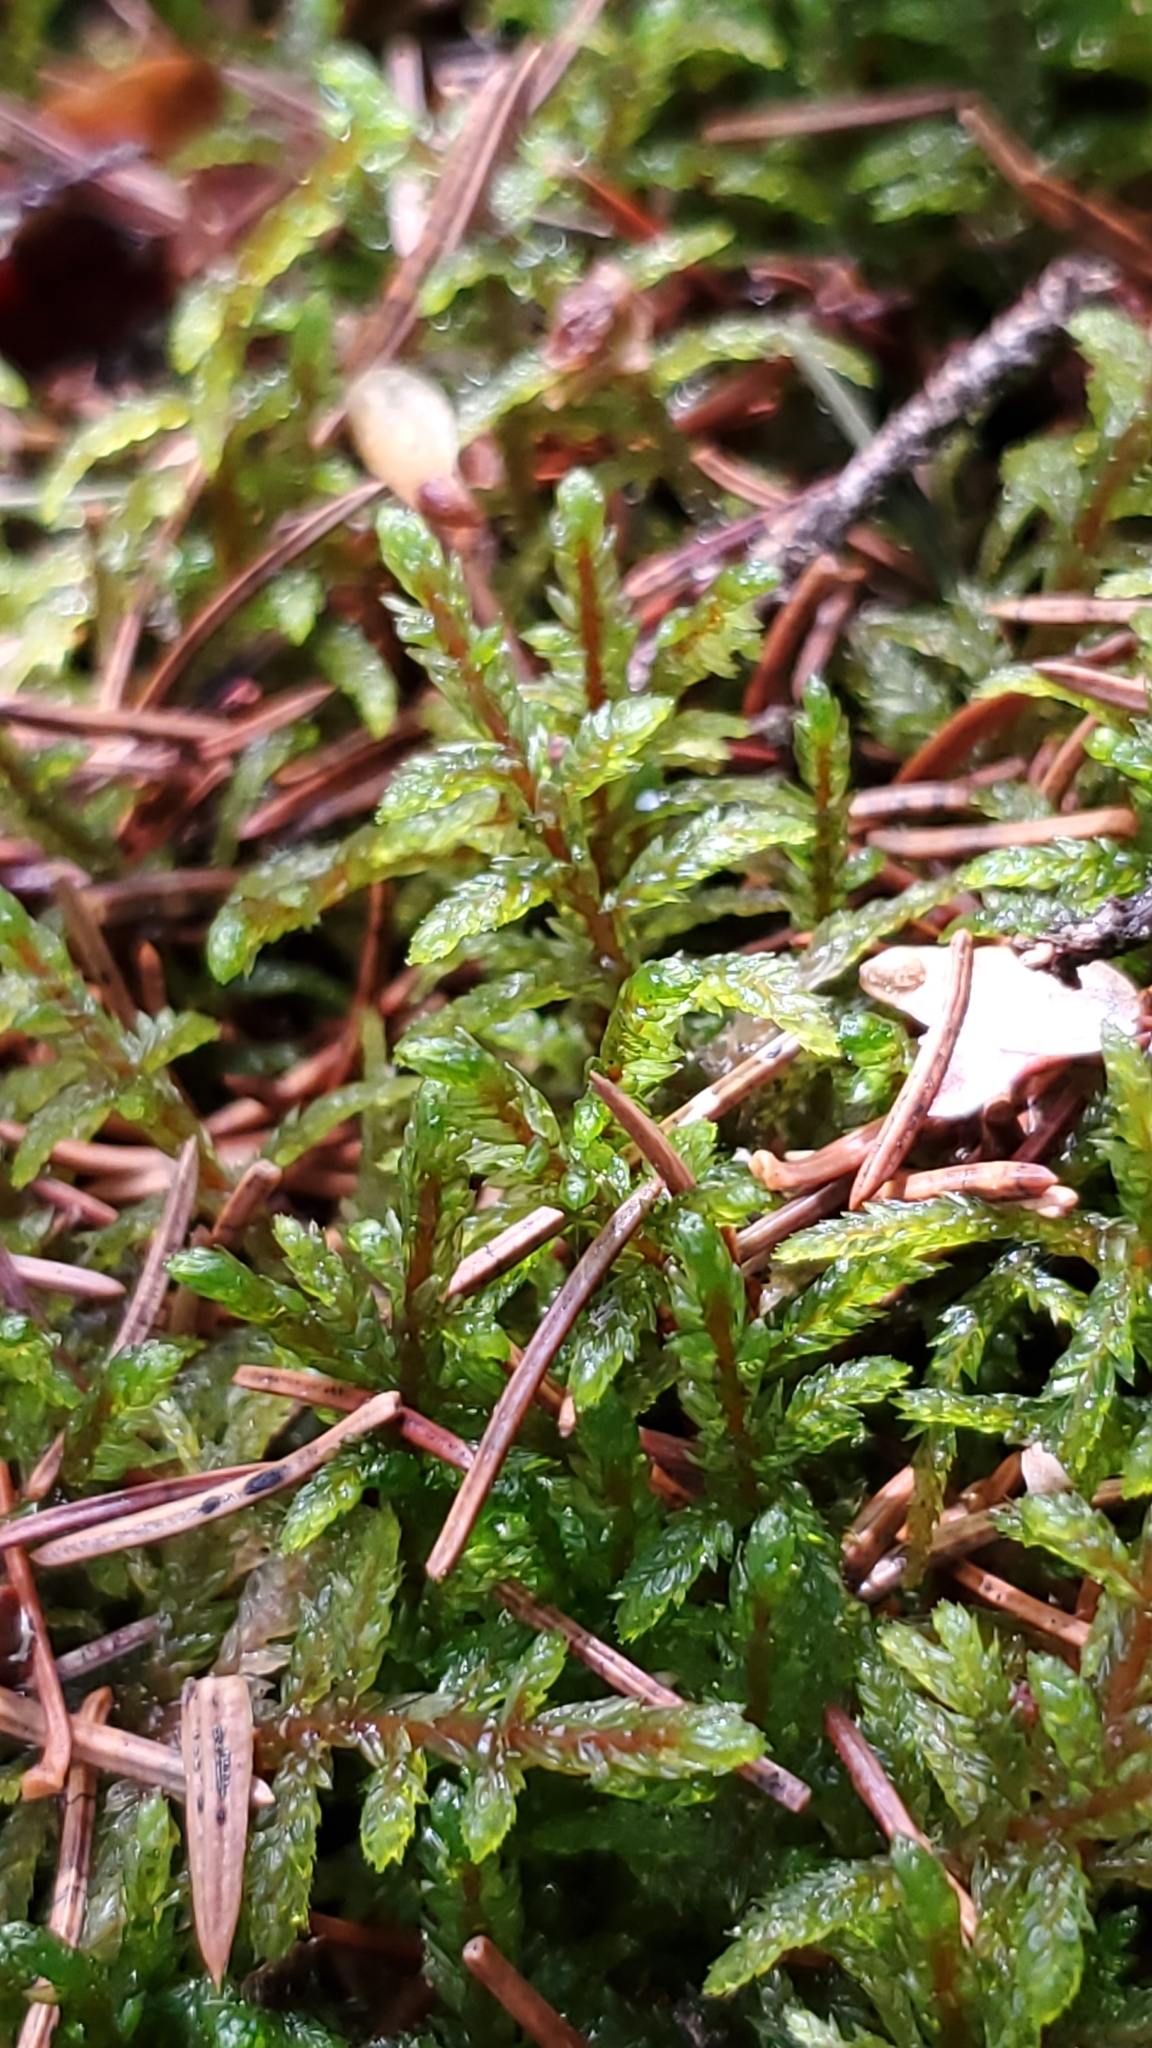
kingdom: Plantae
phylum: Bryophyta
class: Bryopsida
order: Hypnales
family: Hylocomiaceae
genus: Pleurozium
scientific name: Pleurozium schreberi
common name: Red-stemmed feather moss
